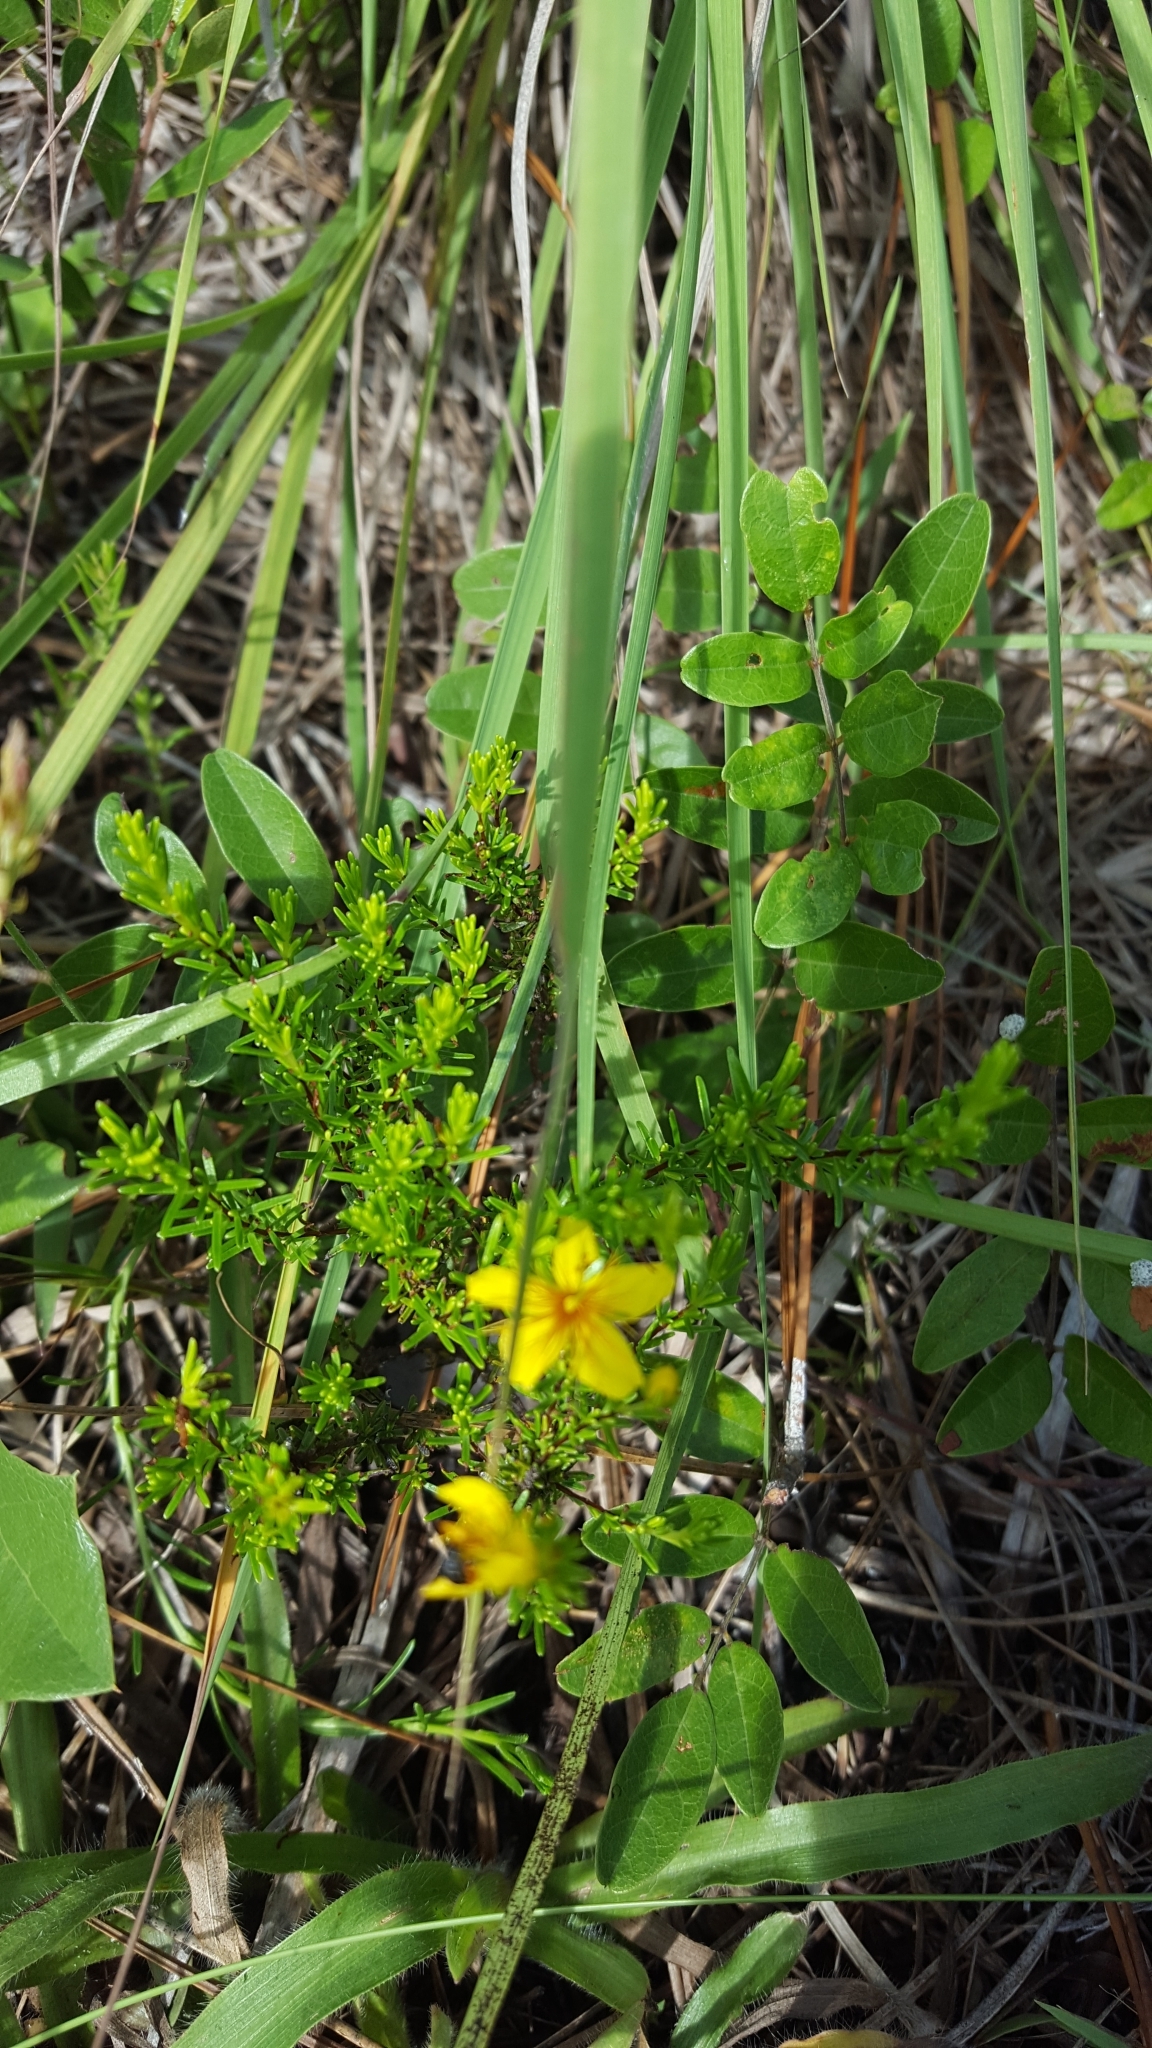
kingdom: Plantae
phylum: Tracheophyta
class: Magnoliopsida
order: Malpighiales
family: Hypericaceae
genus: Hypericum
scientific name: Hypericum tenuifolium
